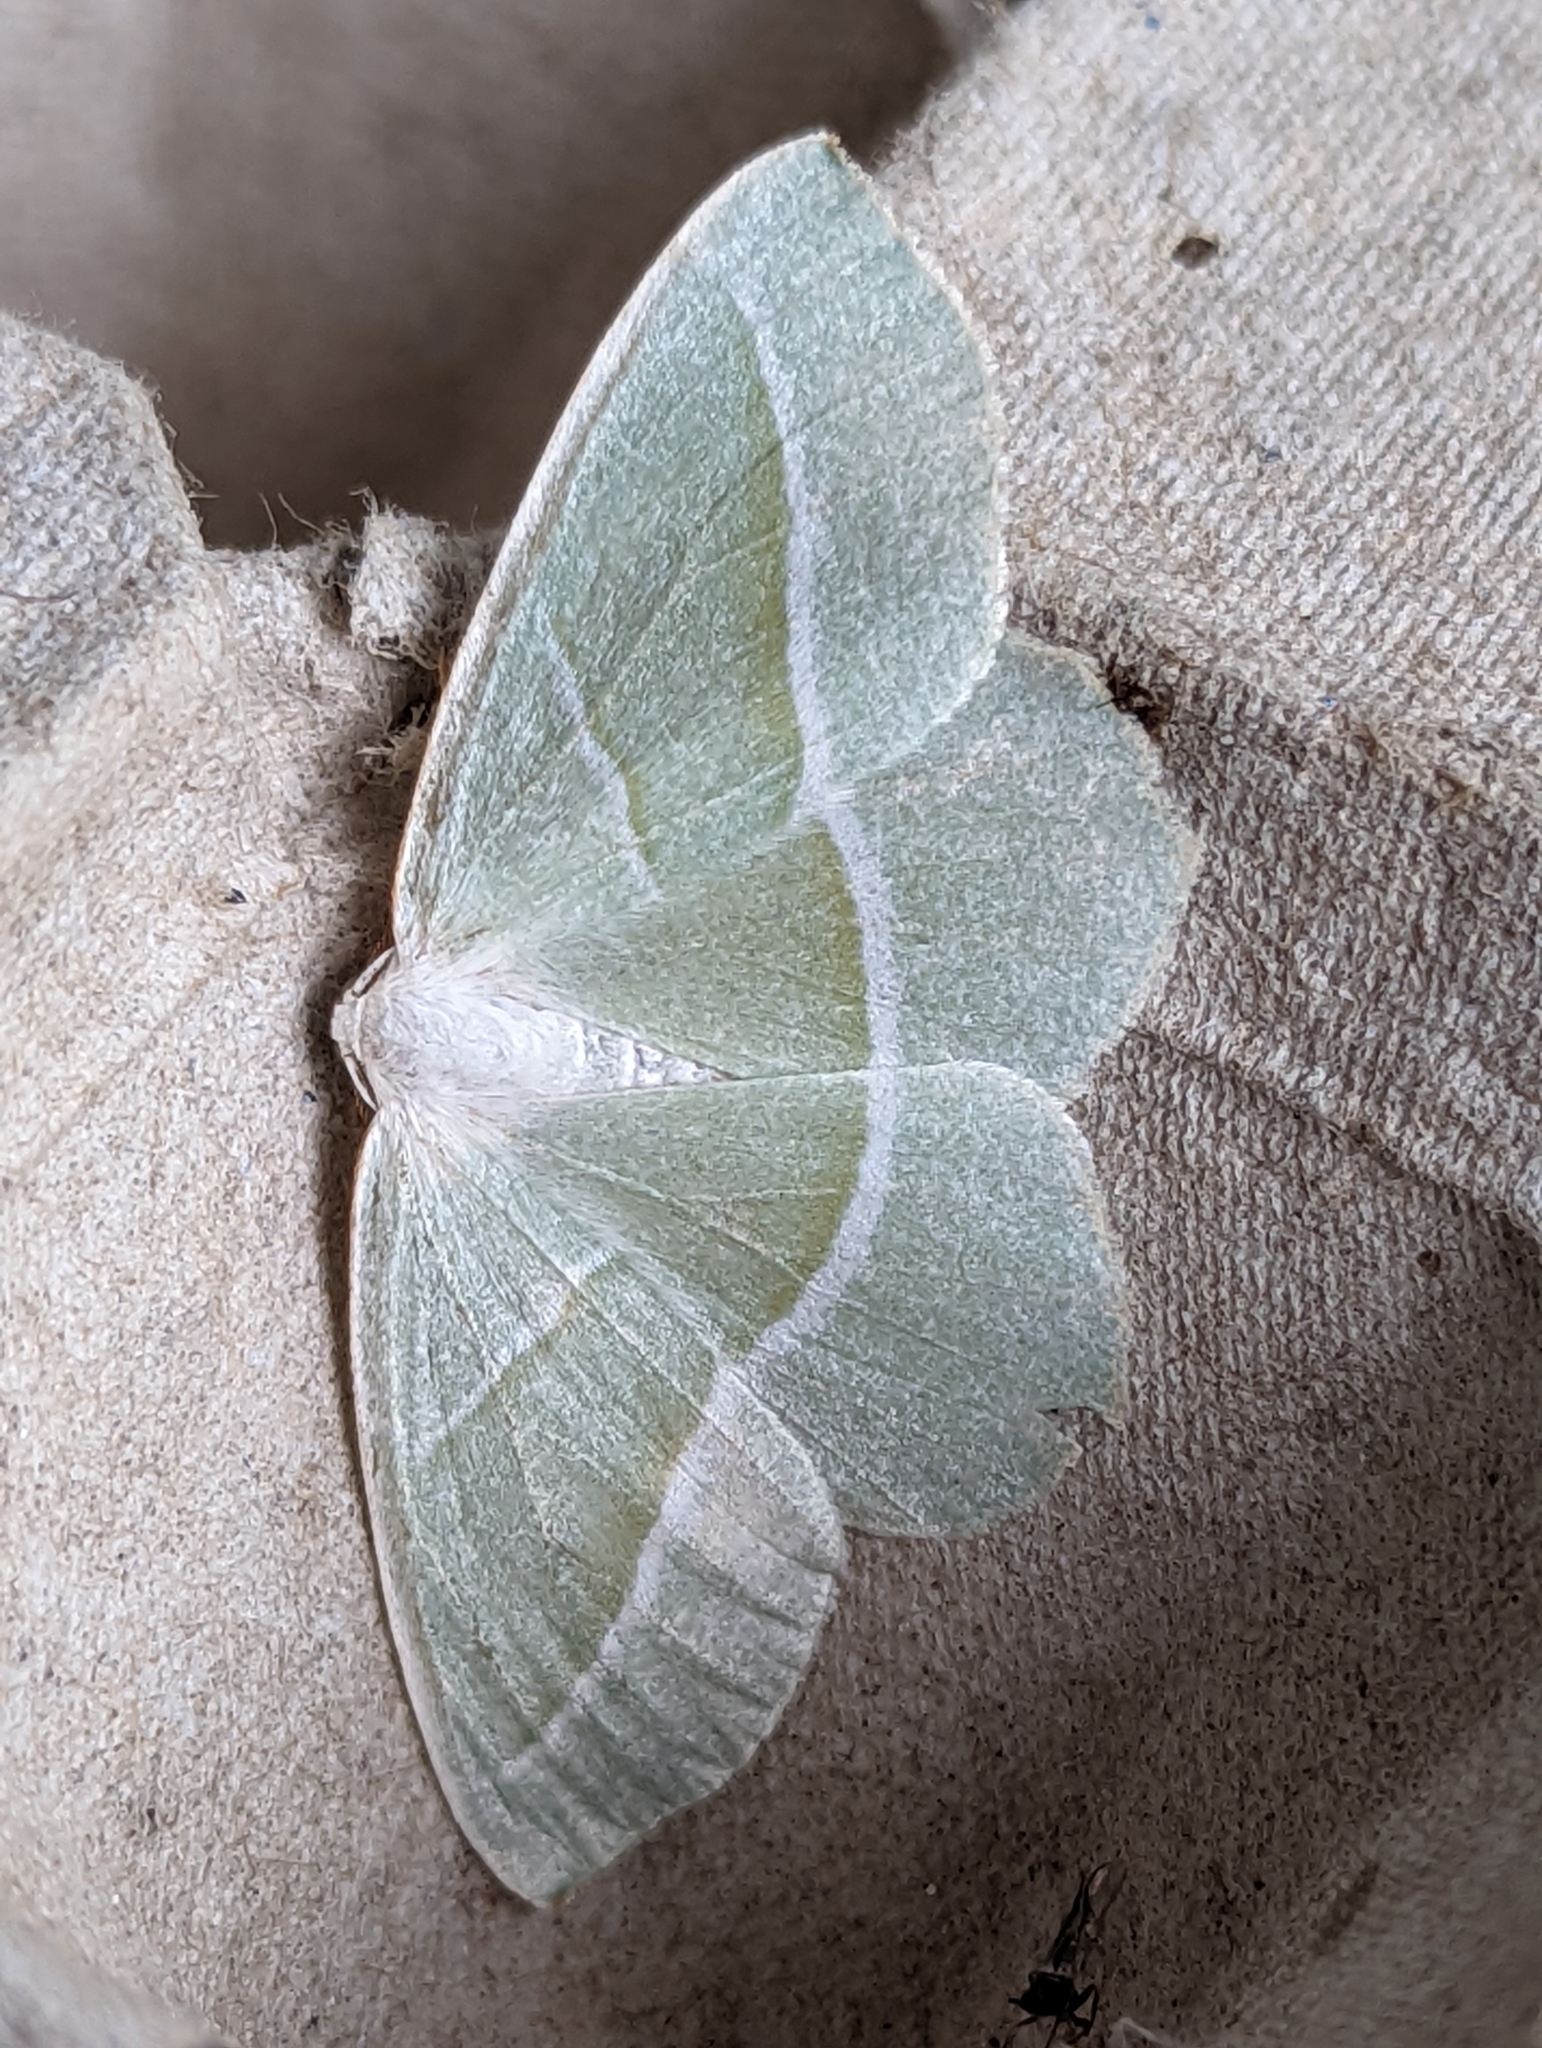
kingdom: Animalia
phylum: Arthropoda
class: Insecta
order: Lepidoptera
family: Geometridae
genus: Campaea
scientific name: Campaea margaritaria
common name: Light emerald
